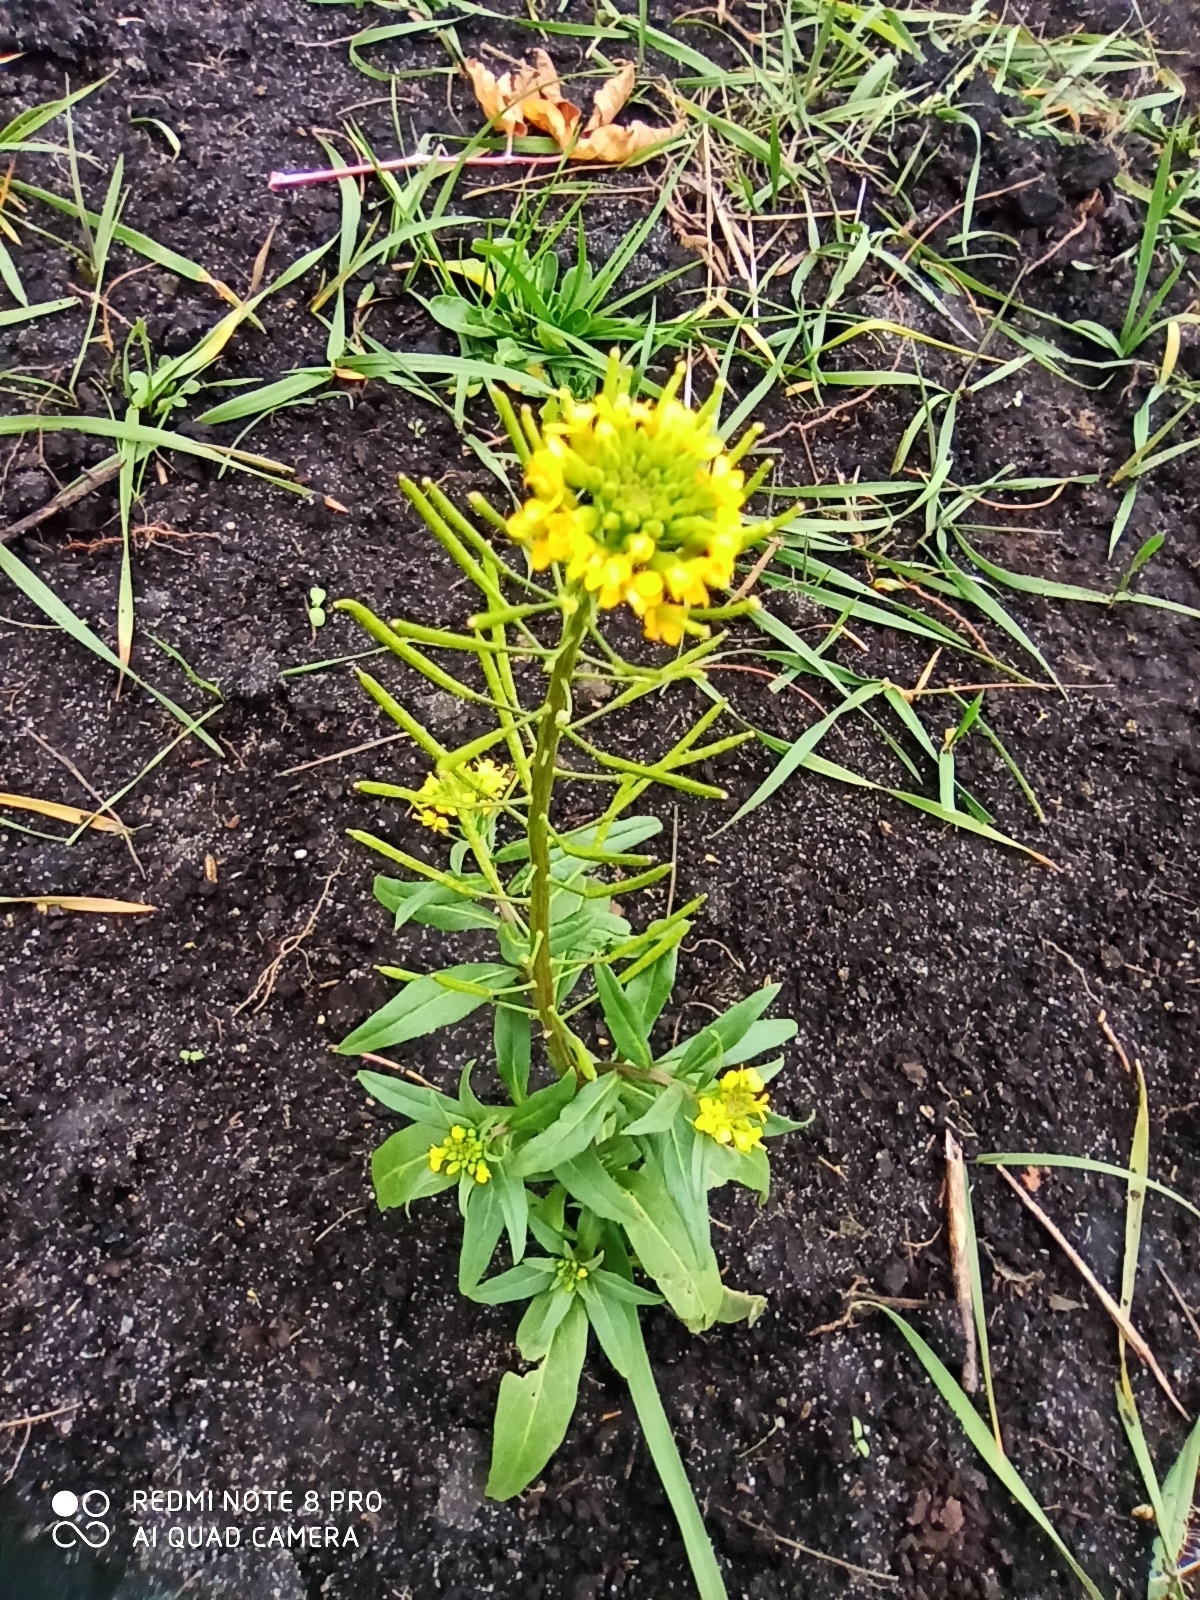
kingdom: Plantae
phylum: Tracheophyta
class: Magnoliopsida
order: Brassicales
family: Brassicaceae
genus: Erysimum
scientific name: Erysimum cheiranthoides
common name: Treacle mustard
